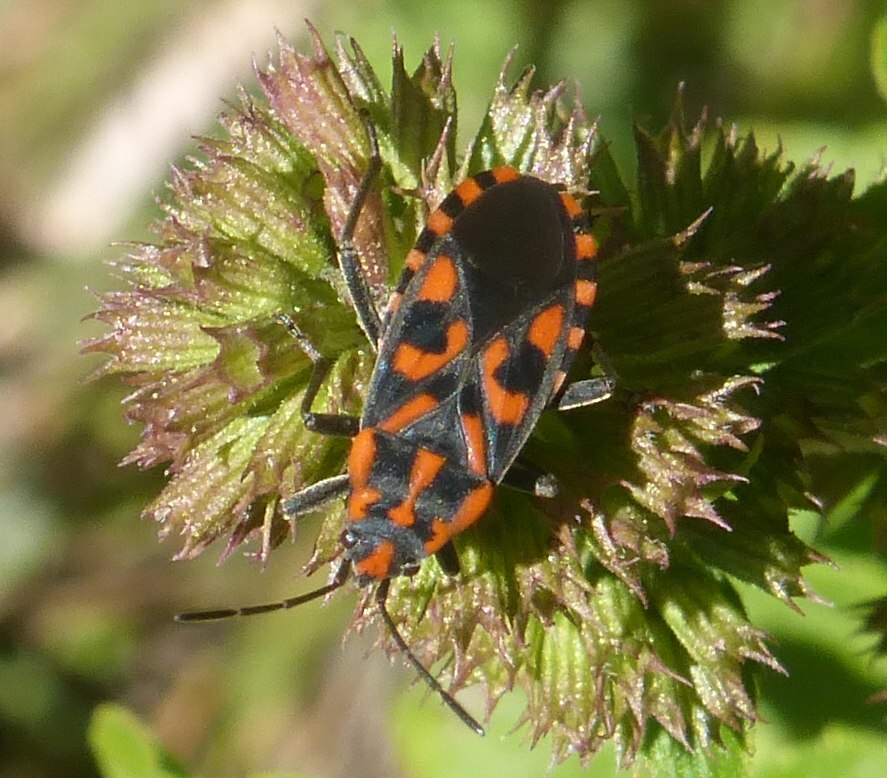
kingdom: Animalia
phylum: Arthropoda
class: Insecta
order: Hemiptera
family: Lygaeidae
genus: Spilostethus
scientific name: Spilostethus saxatilis
